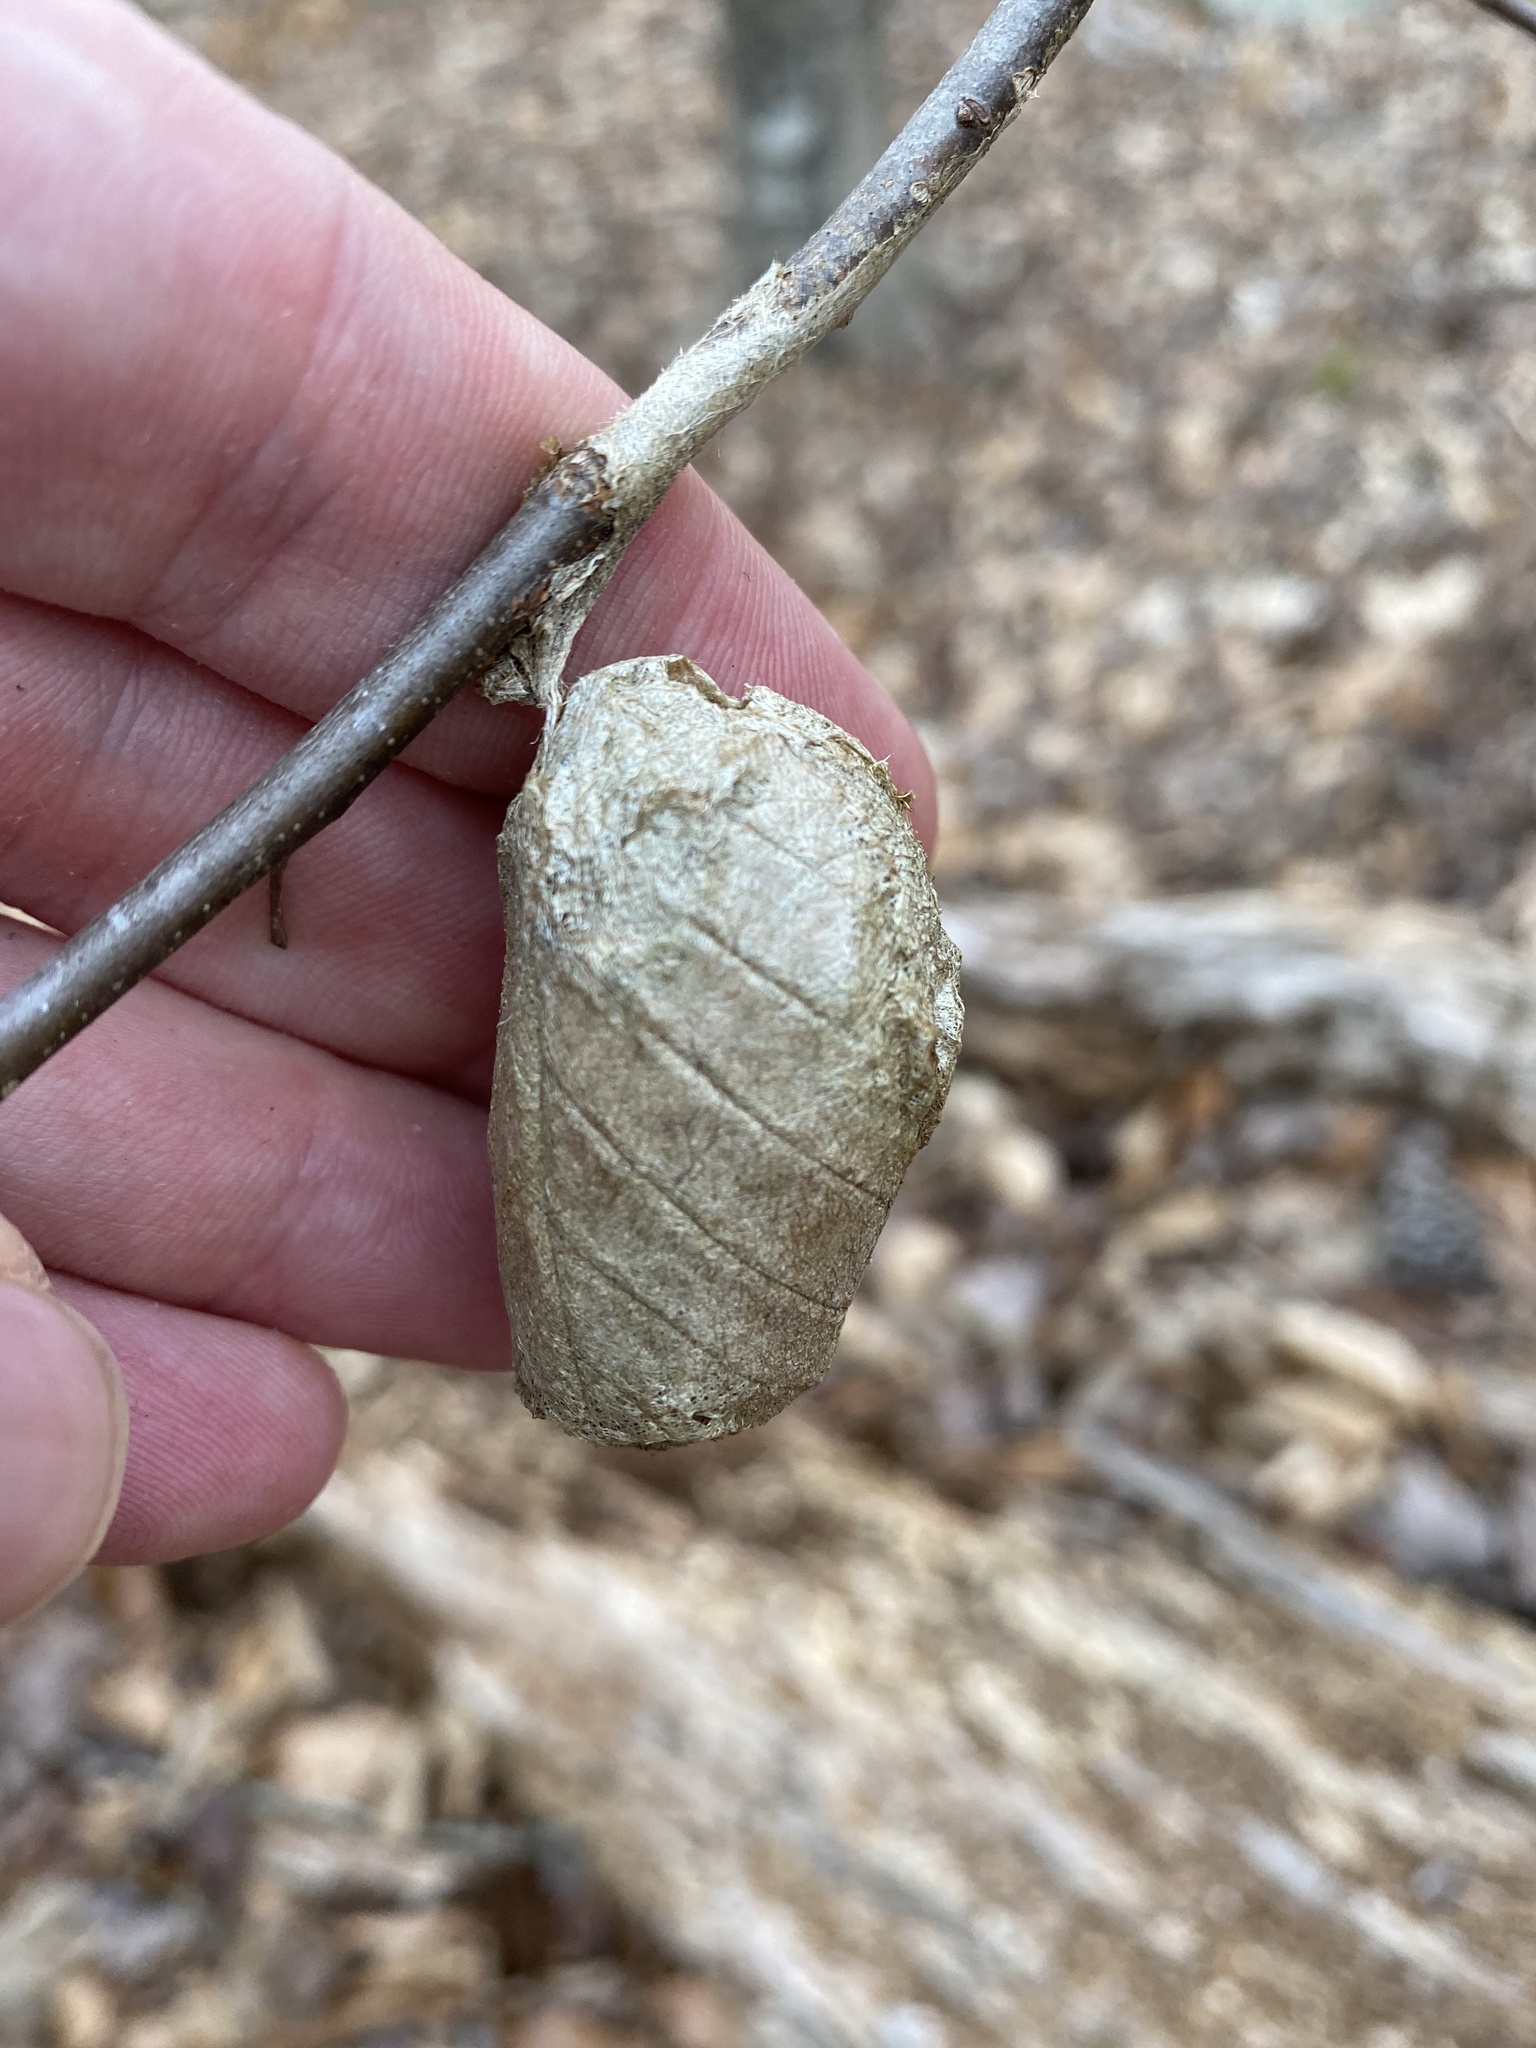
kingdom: Animalia
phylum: Arthropoda
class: Insecta
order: Lepidoptera
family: Saturniidae
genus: Antheraea
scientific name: Antheraea polyphemus
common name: Polyphemus moth
